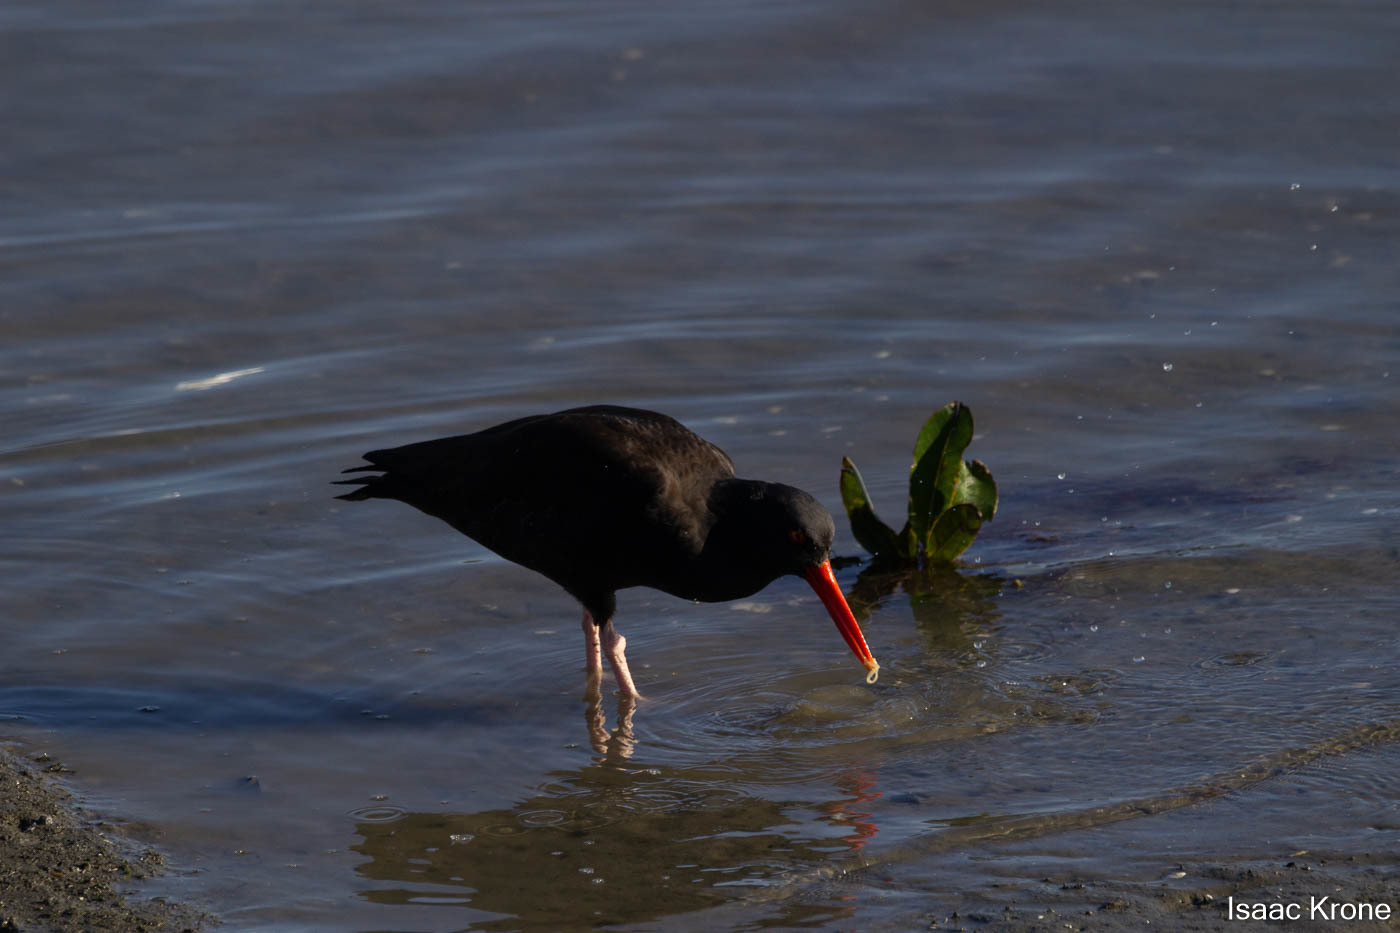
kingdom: Animalia
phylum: Chordata
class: Aves
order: Charadriiformes
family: Haematopodidae
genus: Haematopus
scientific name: Haematopus bachmani
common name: Black oystercatcher
